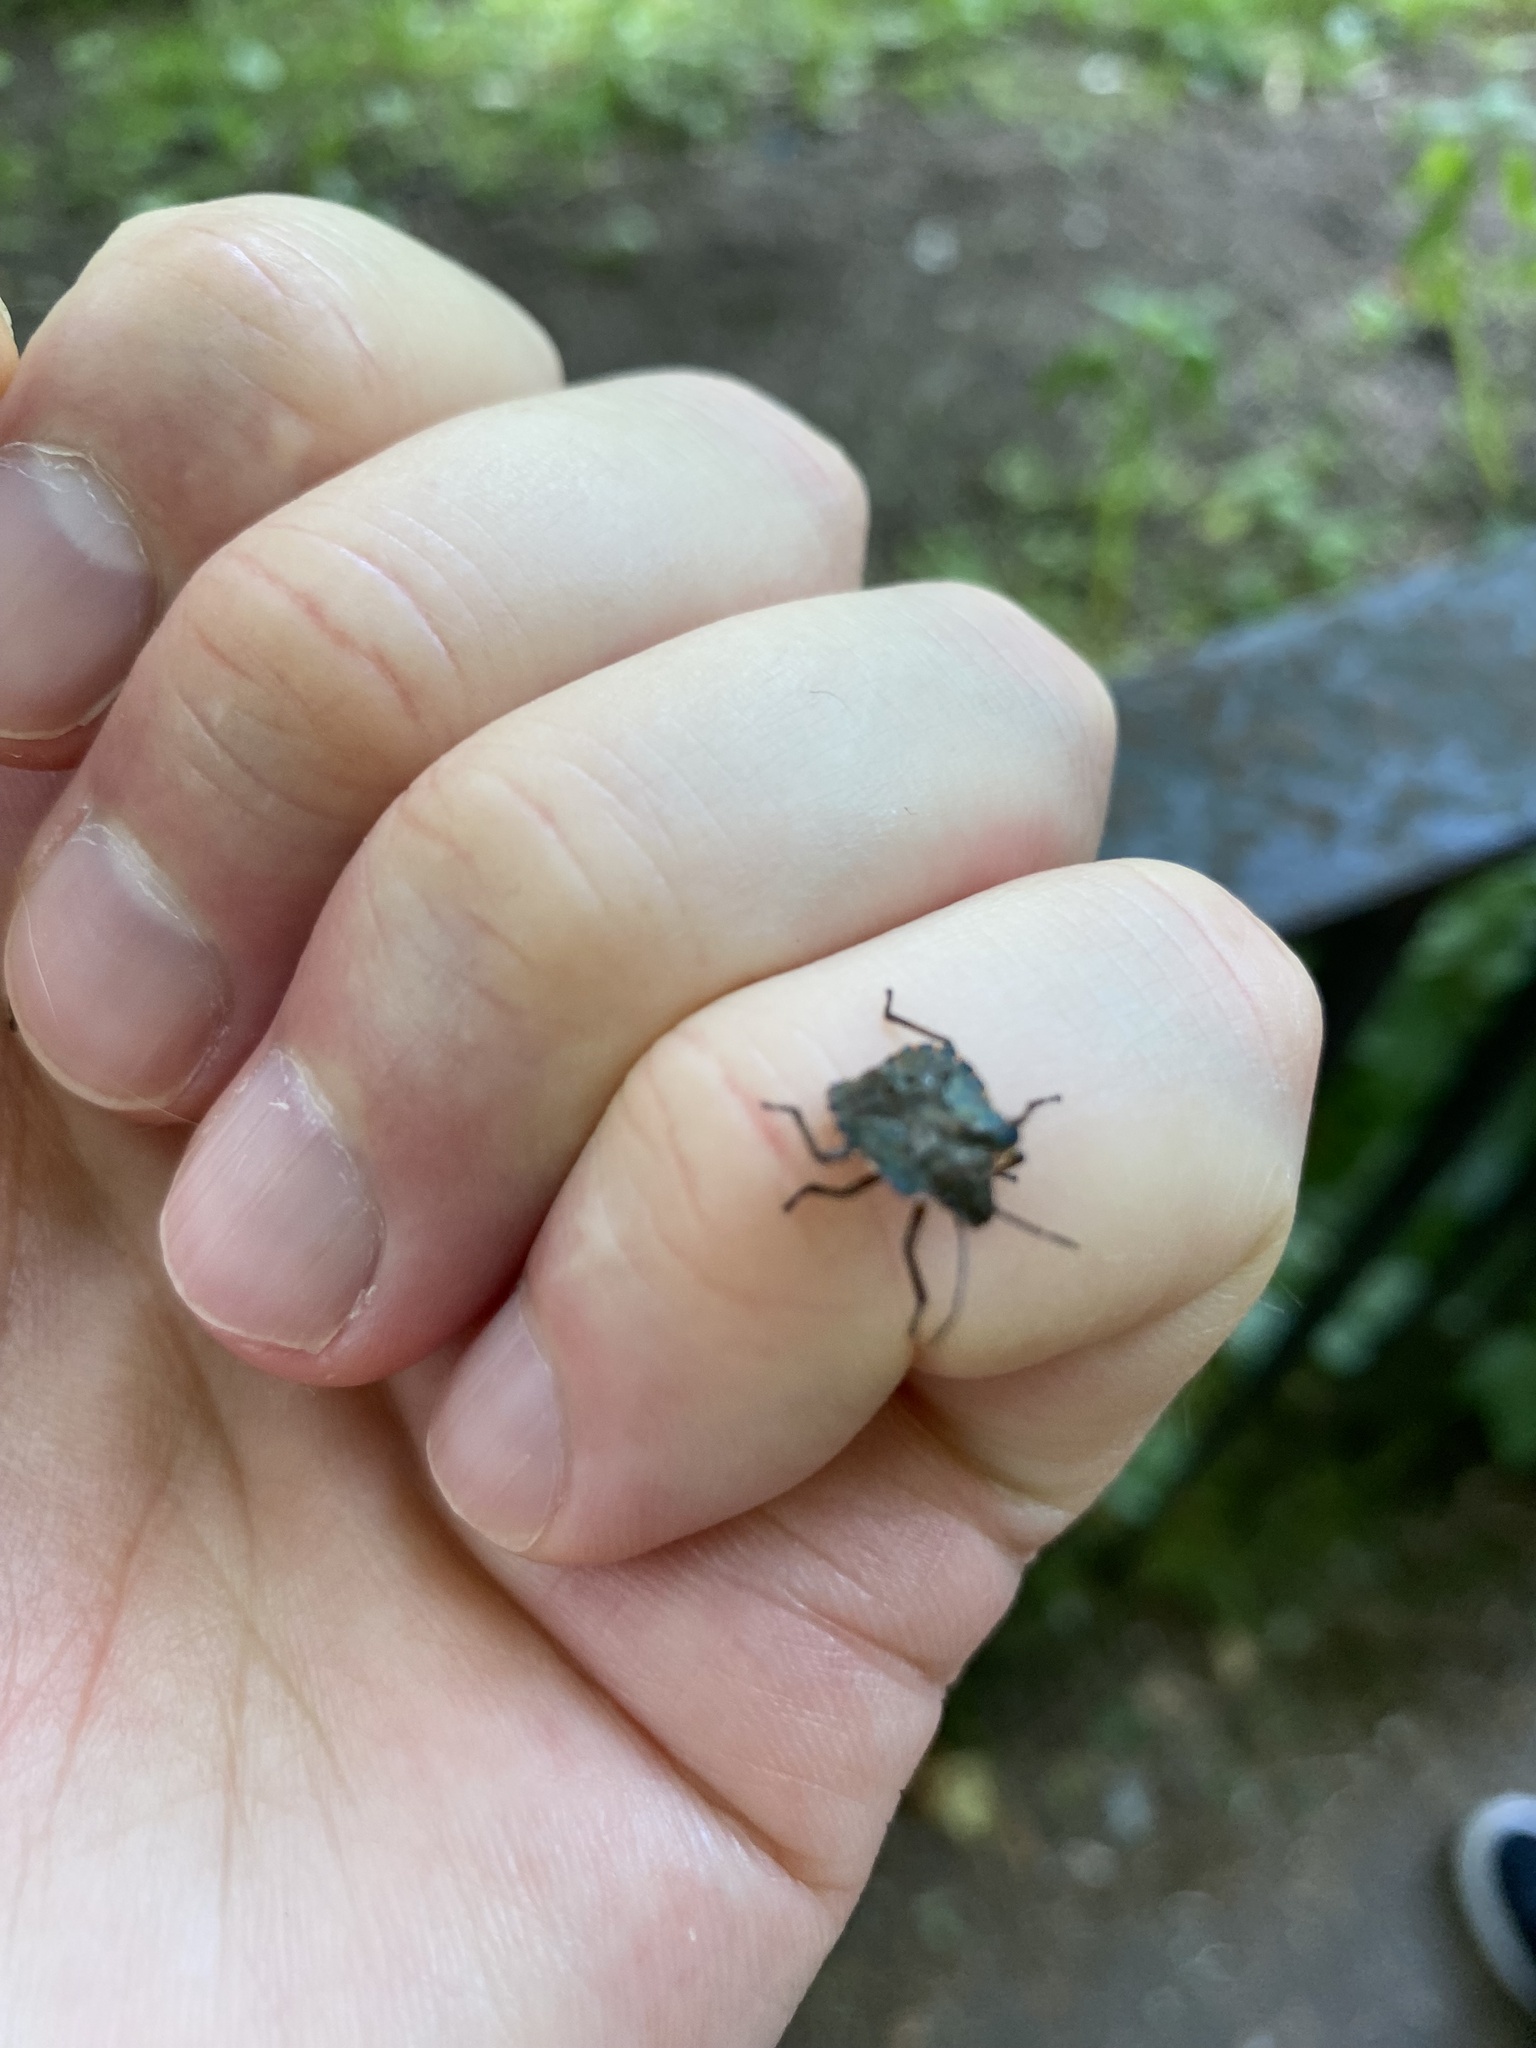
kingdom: Animalia
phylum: Arthropoda
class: Insecta
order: Hemiptera
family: Pentatomidae
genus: Pentatoma
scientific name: Pentatoma rufipes
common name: Forest bug
